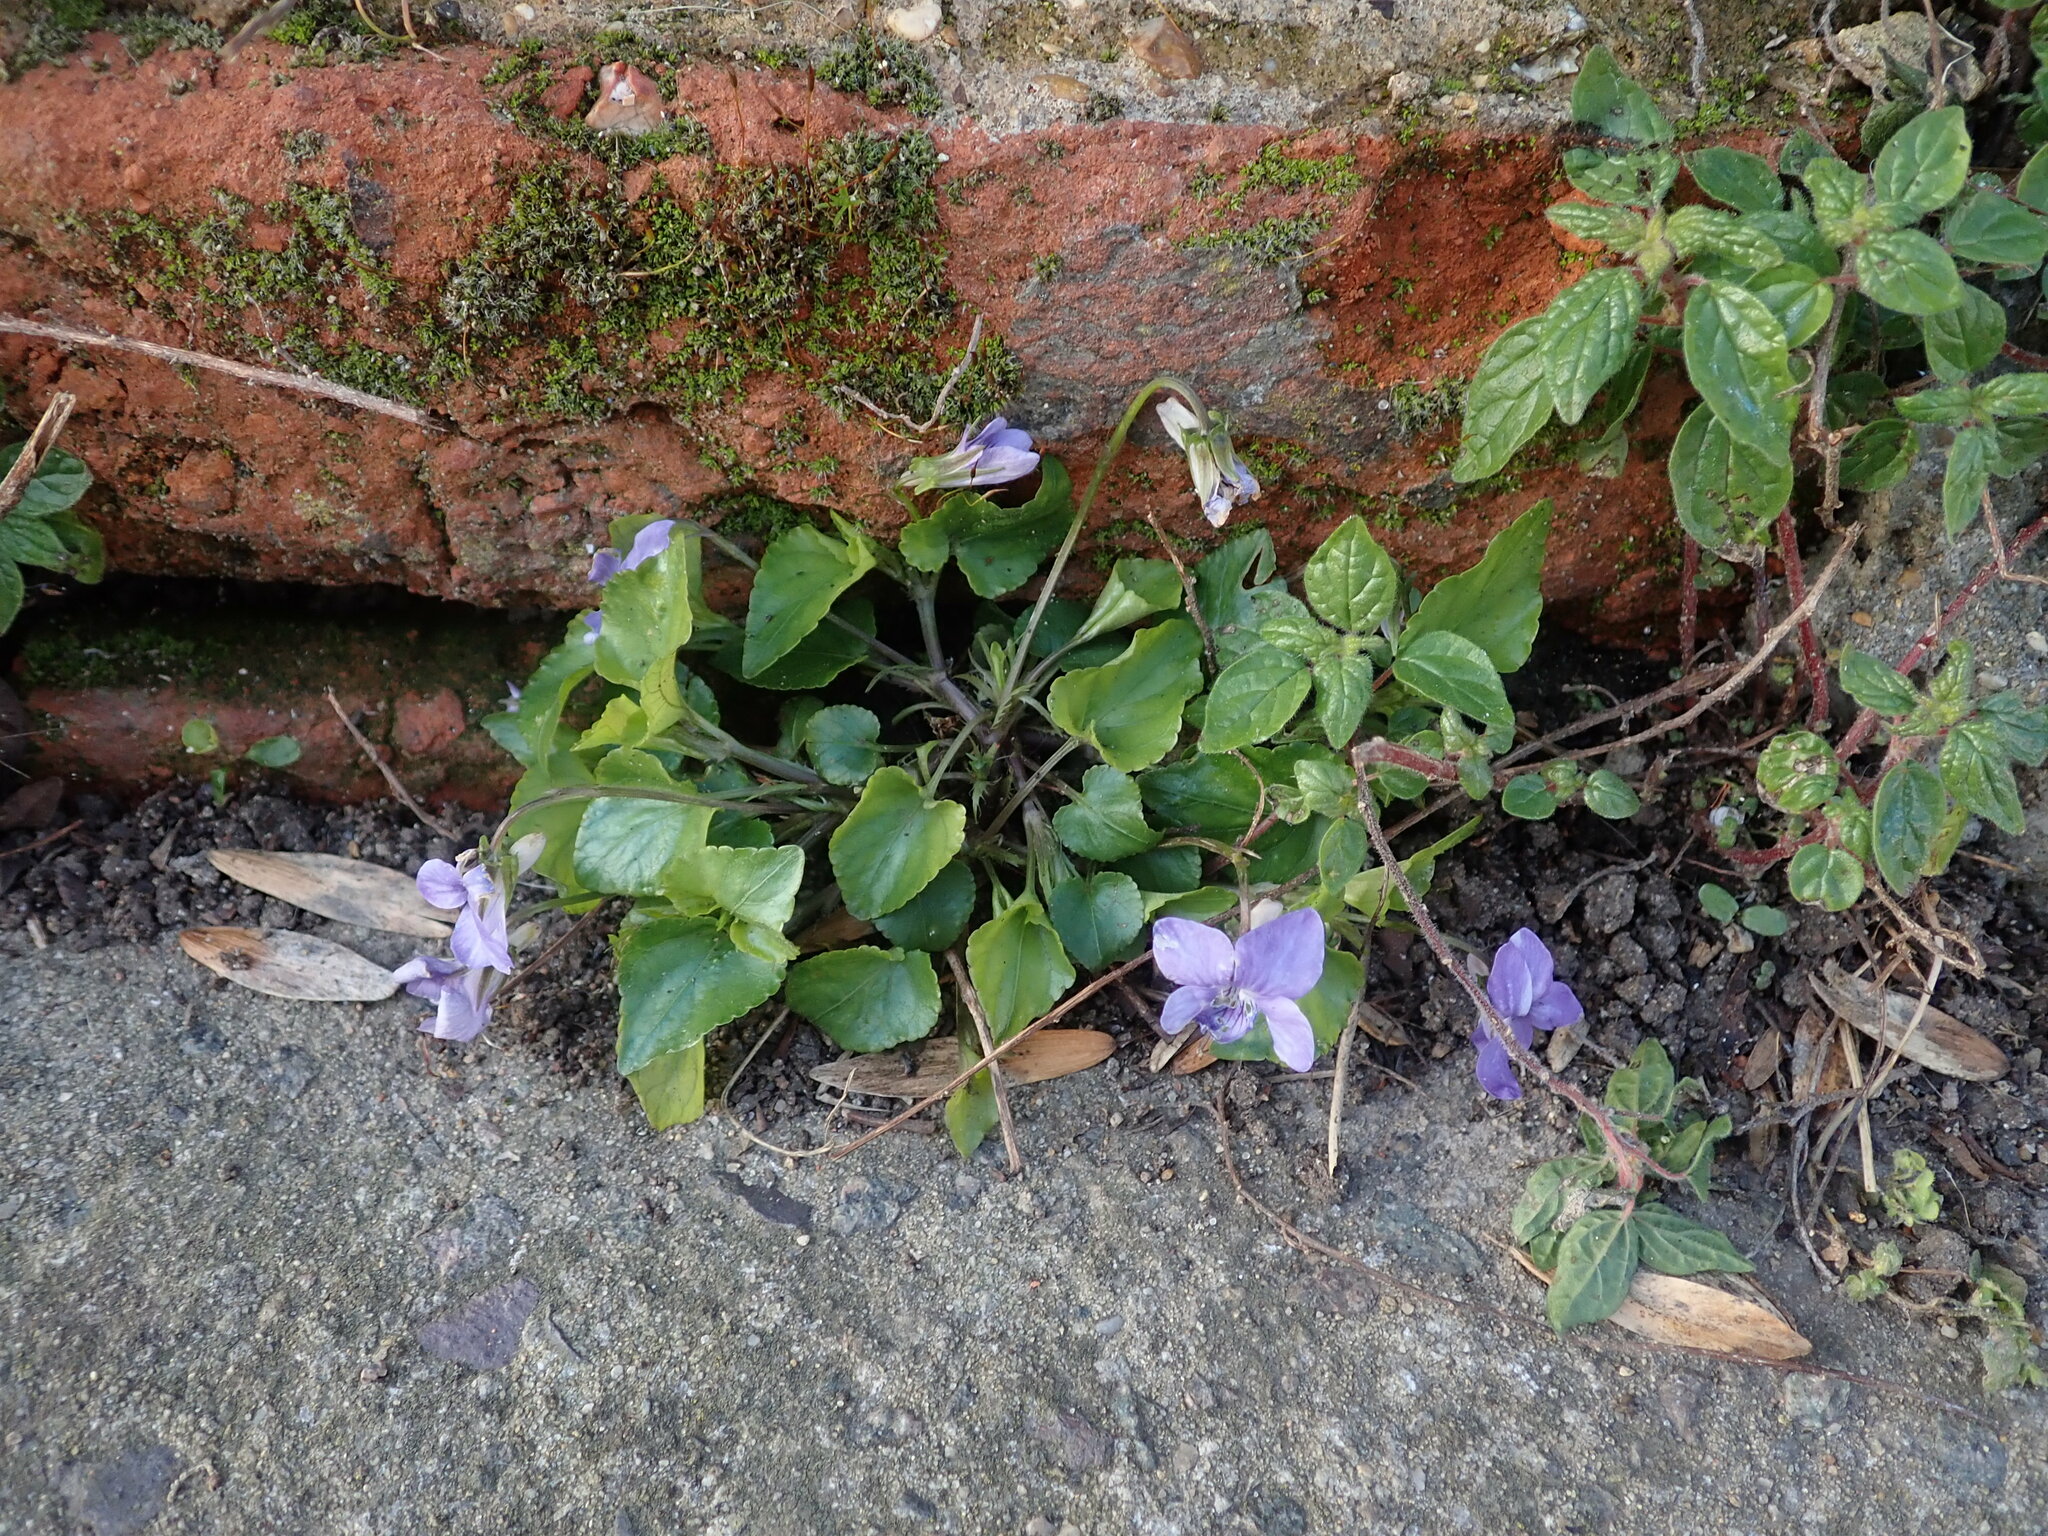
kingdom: Plantae
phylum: Tracheophyta
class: Magnoliopsida
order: Malpighiales
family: Violaceae
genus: Viola
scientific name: Viola riviniana
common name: Common dog-violet
